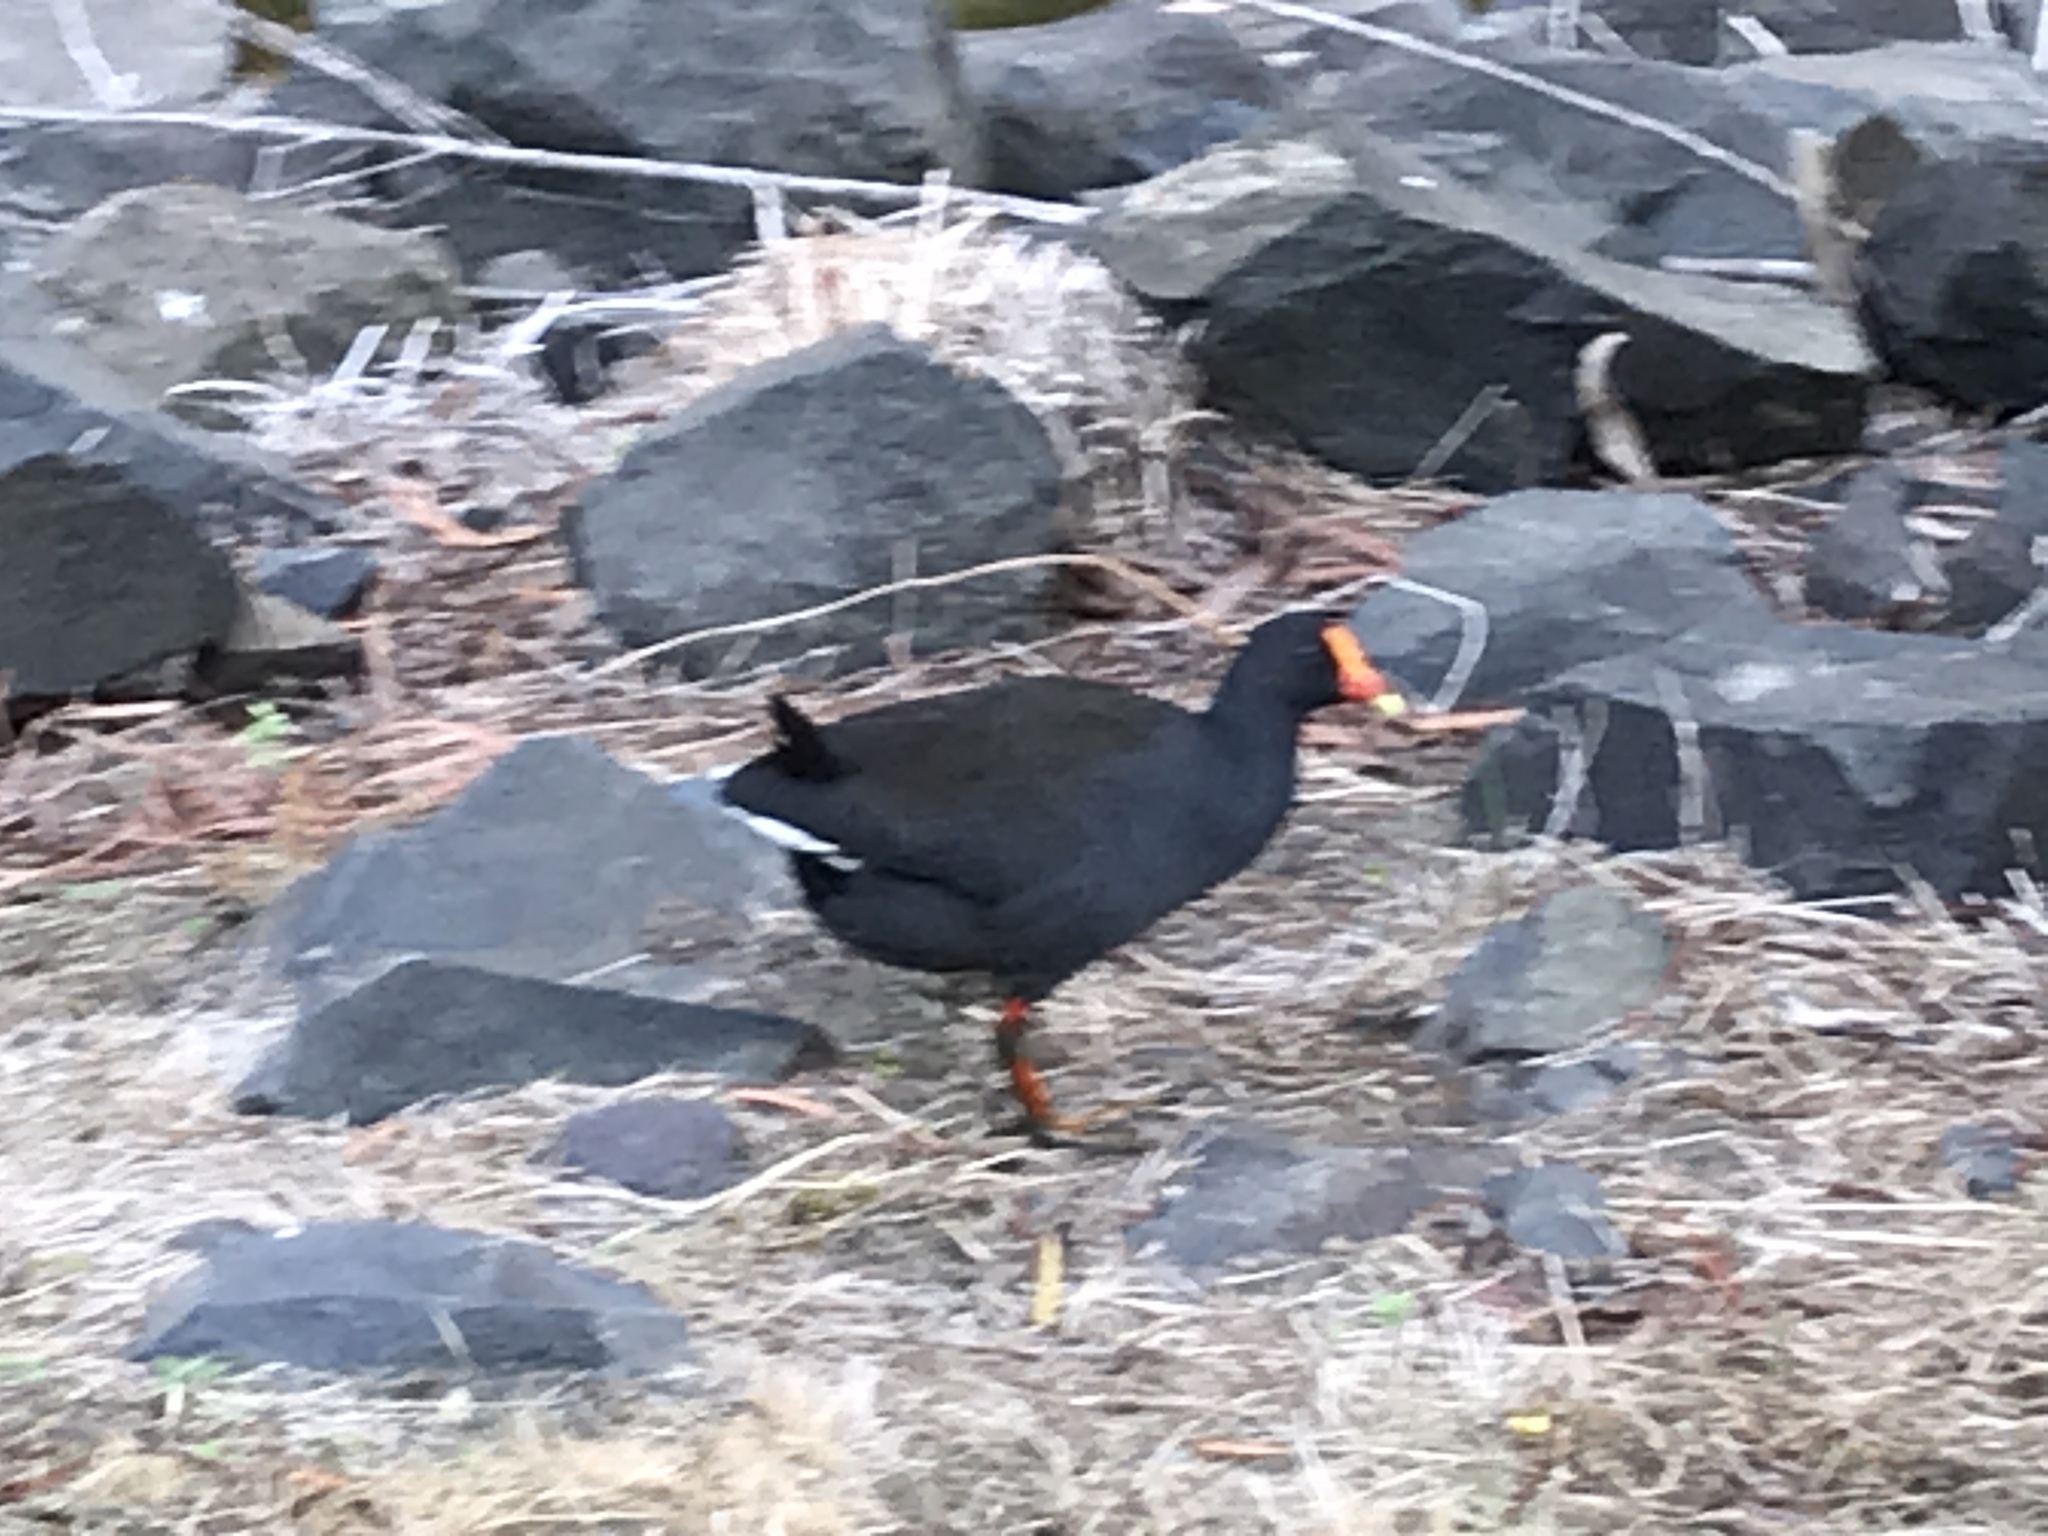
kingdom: Animalia
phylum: Chordata
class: Aves
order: Gruiformes
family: Rallidae
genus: Gallinula
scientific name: Gallinula tenebrosa
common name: Dusky moorhen
